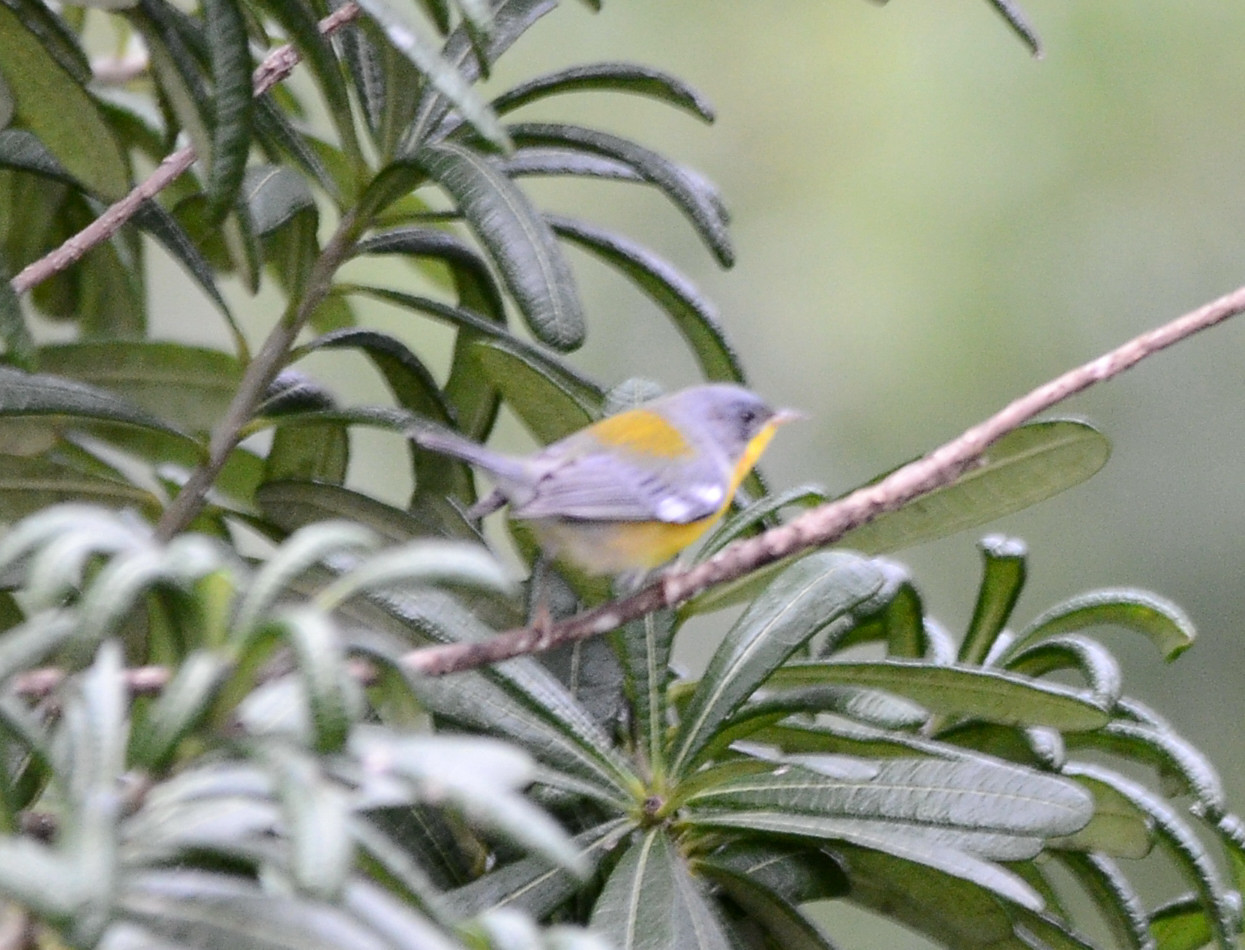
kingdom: Animalia
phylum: Chordata
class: Aves
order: Passeriformes
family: Parulidae
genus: Setophaga
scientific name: Setophaga pitiayumi
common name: Tropical parula
